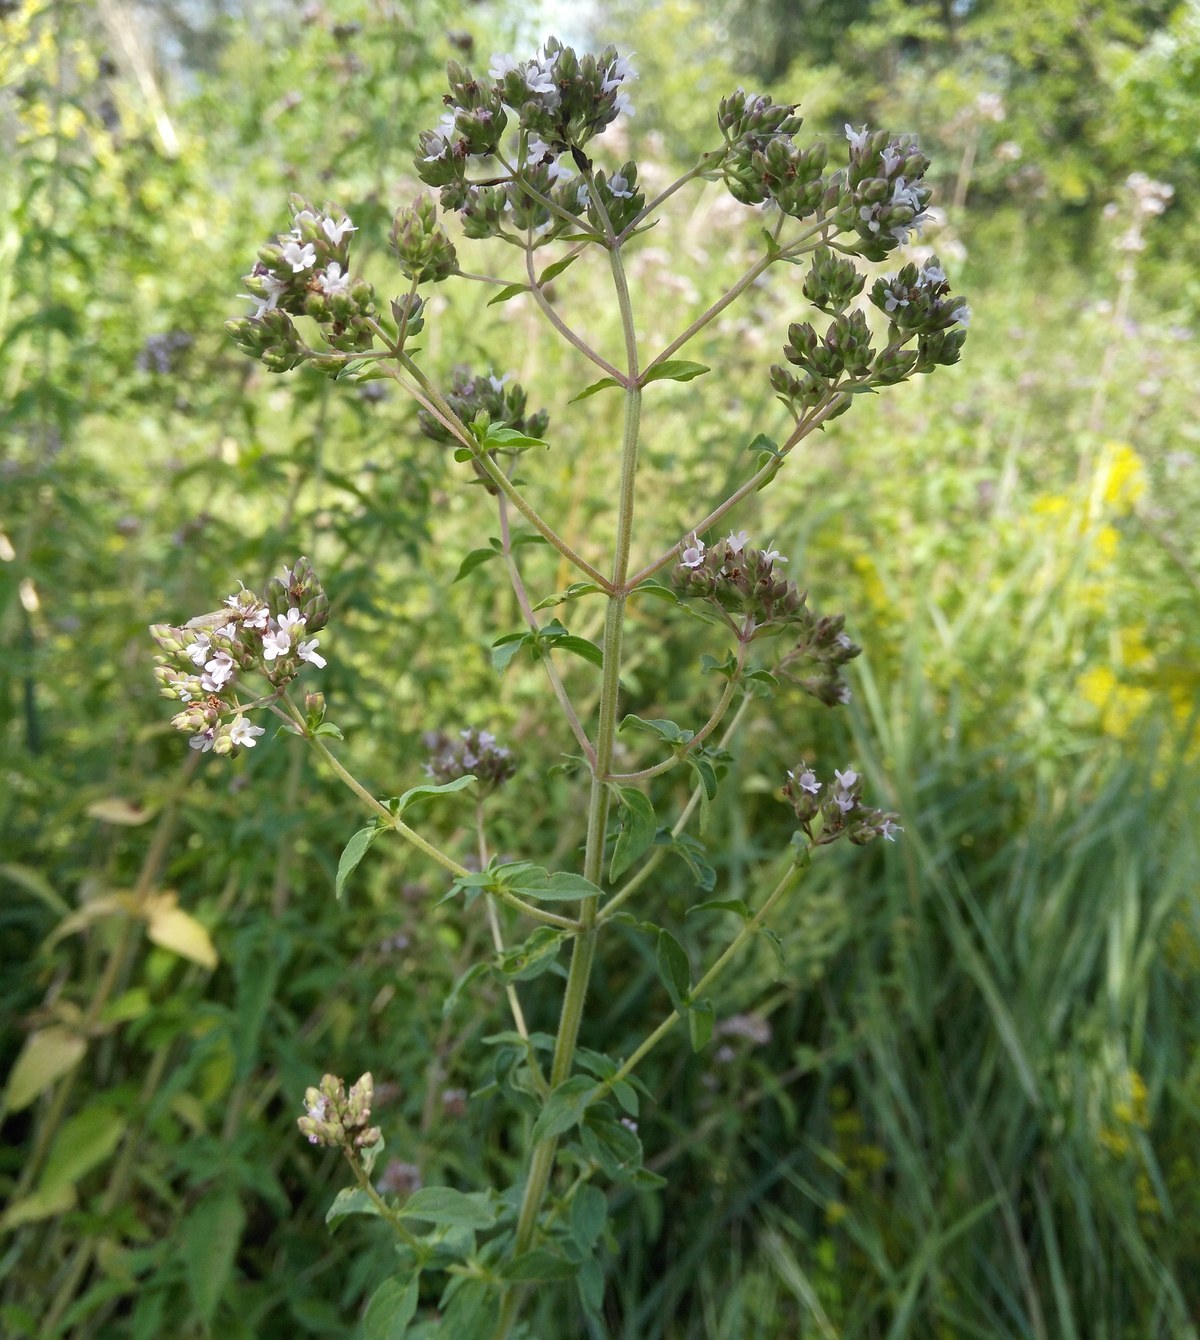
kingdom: Plantae
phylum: Tracheophyta
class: Magnoliopsida
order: Lamiales
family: Lamiaceae
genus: Origanum
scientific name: Origanum vulgare
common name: Wild marjoram
